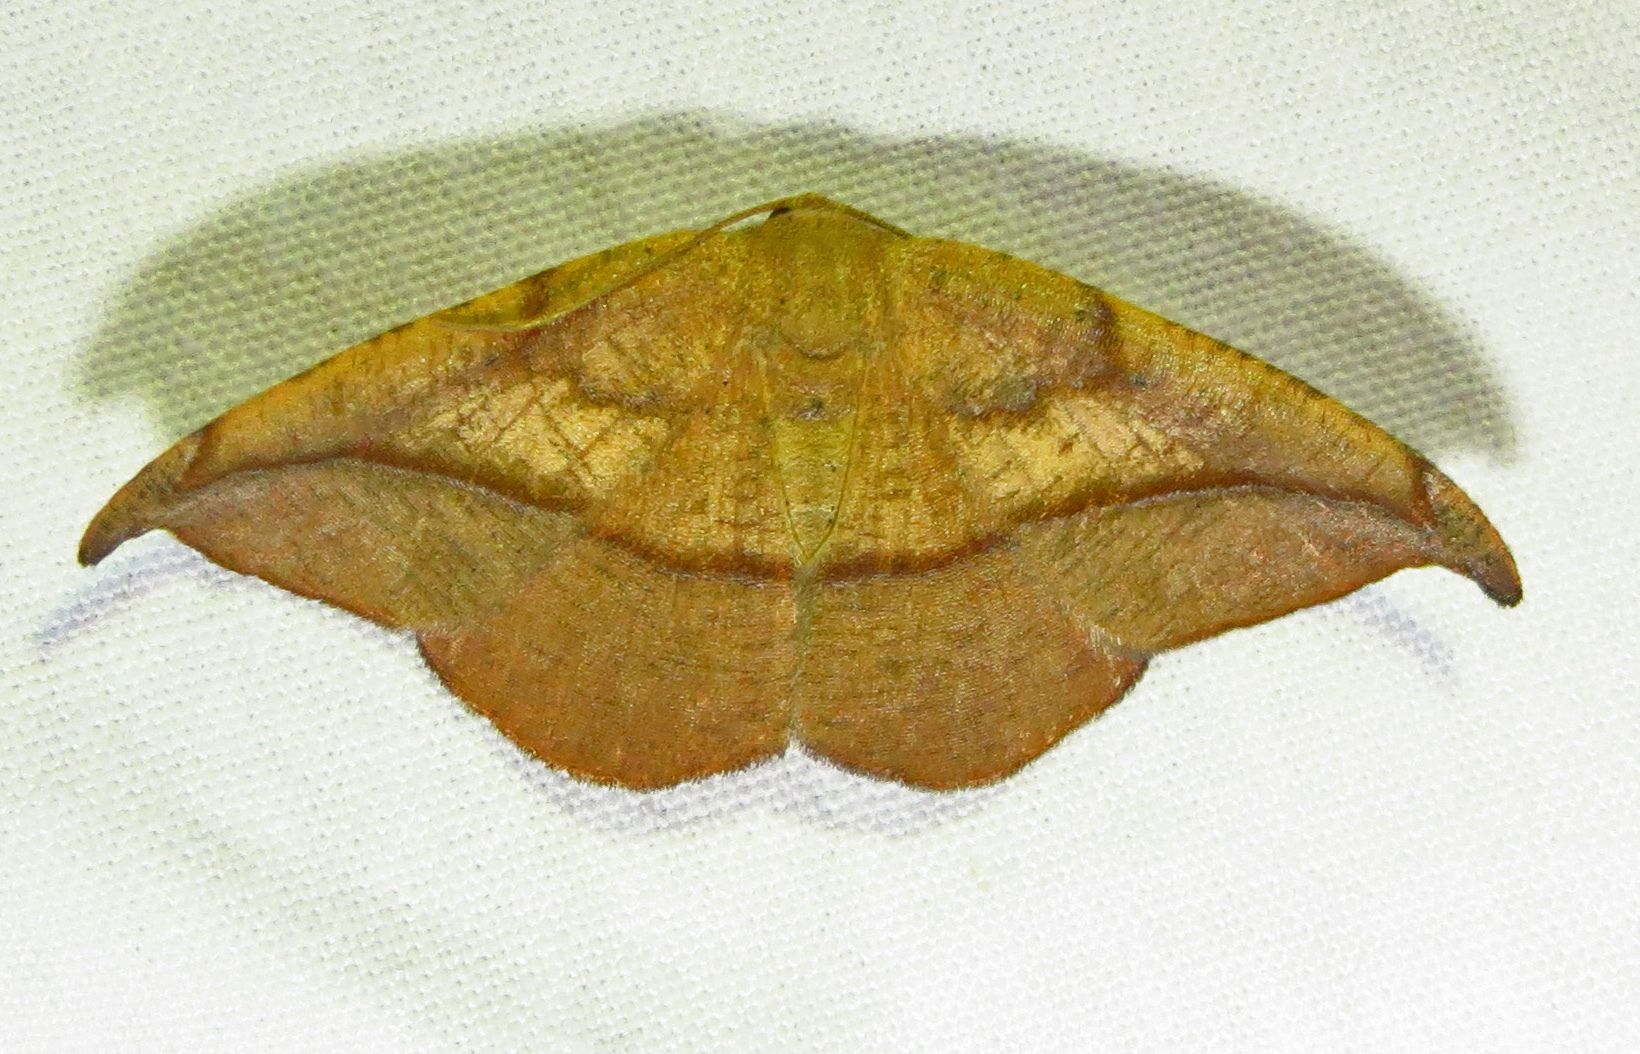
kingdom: Animalia
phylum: Arthropoda
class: Insecta
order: Lepidoptera
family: Geometridae
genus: Patalene
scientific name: Patalene olyzonaria
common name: Juniper geometer moth
